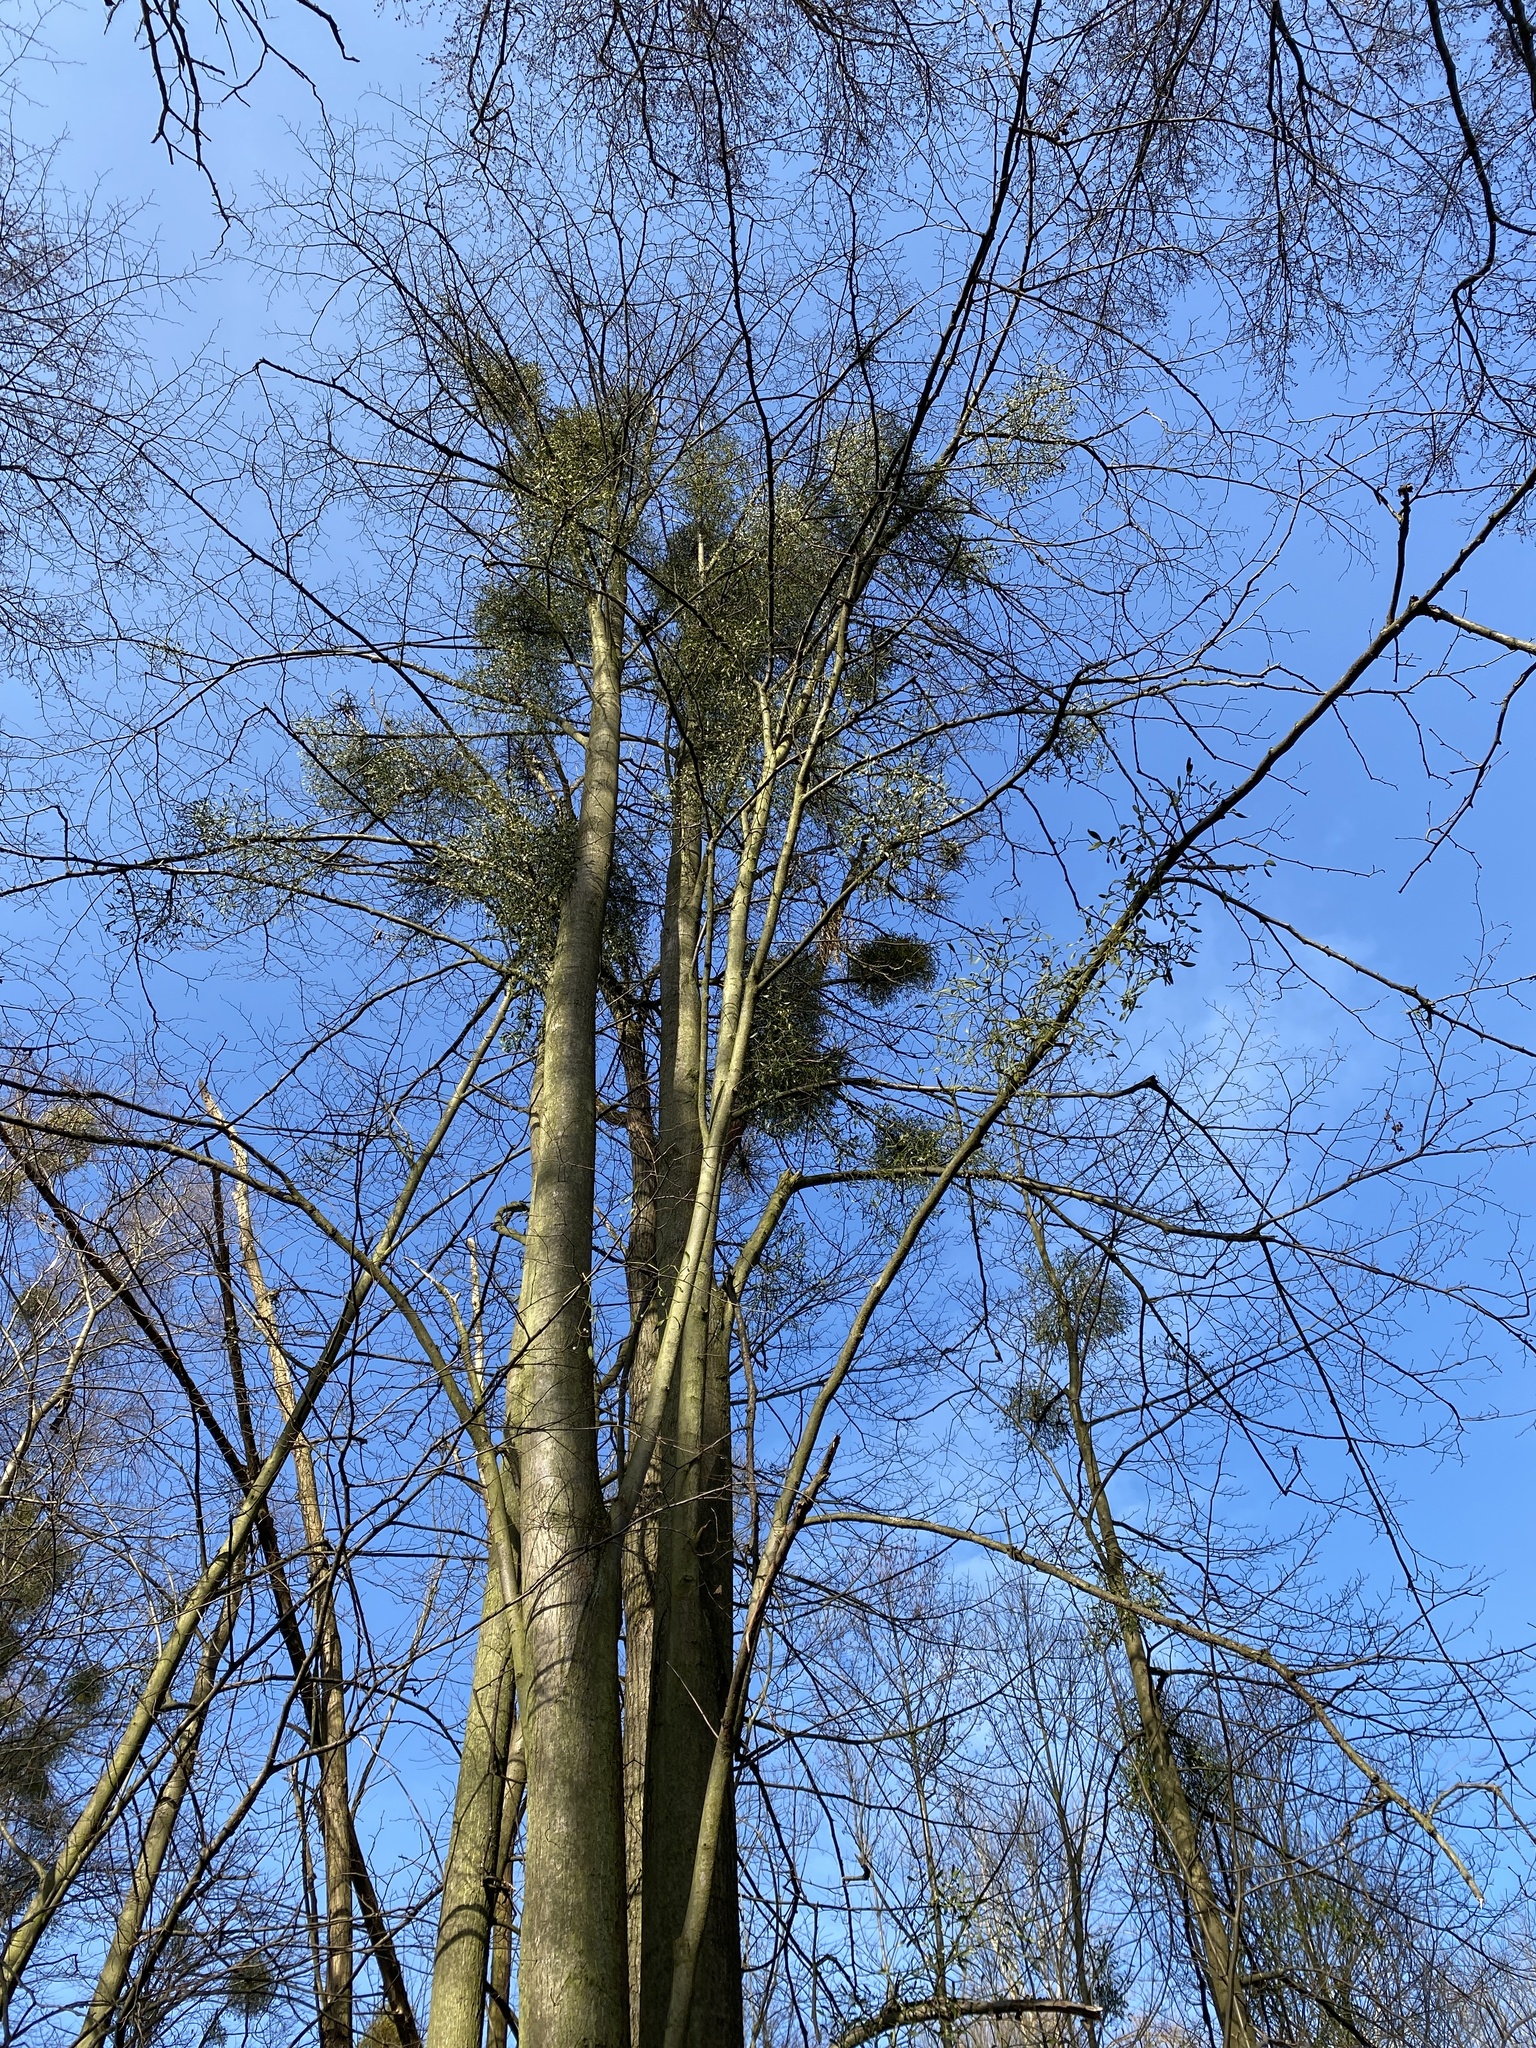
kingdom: Plantae
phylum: Tracheophyta
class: Magnoliopsida
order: Santalales
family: Viscaceae
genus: Viscum
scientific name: Viscum album
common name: Mistletoe
